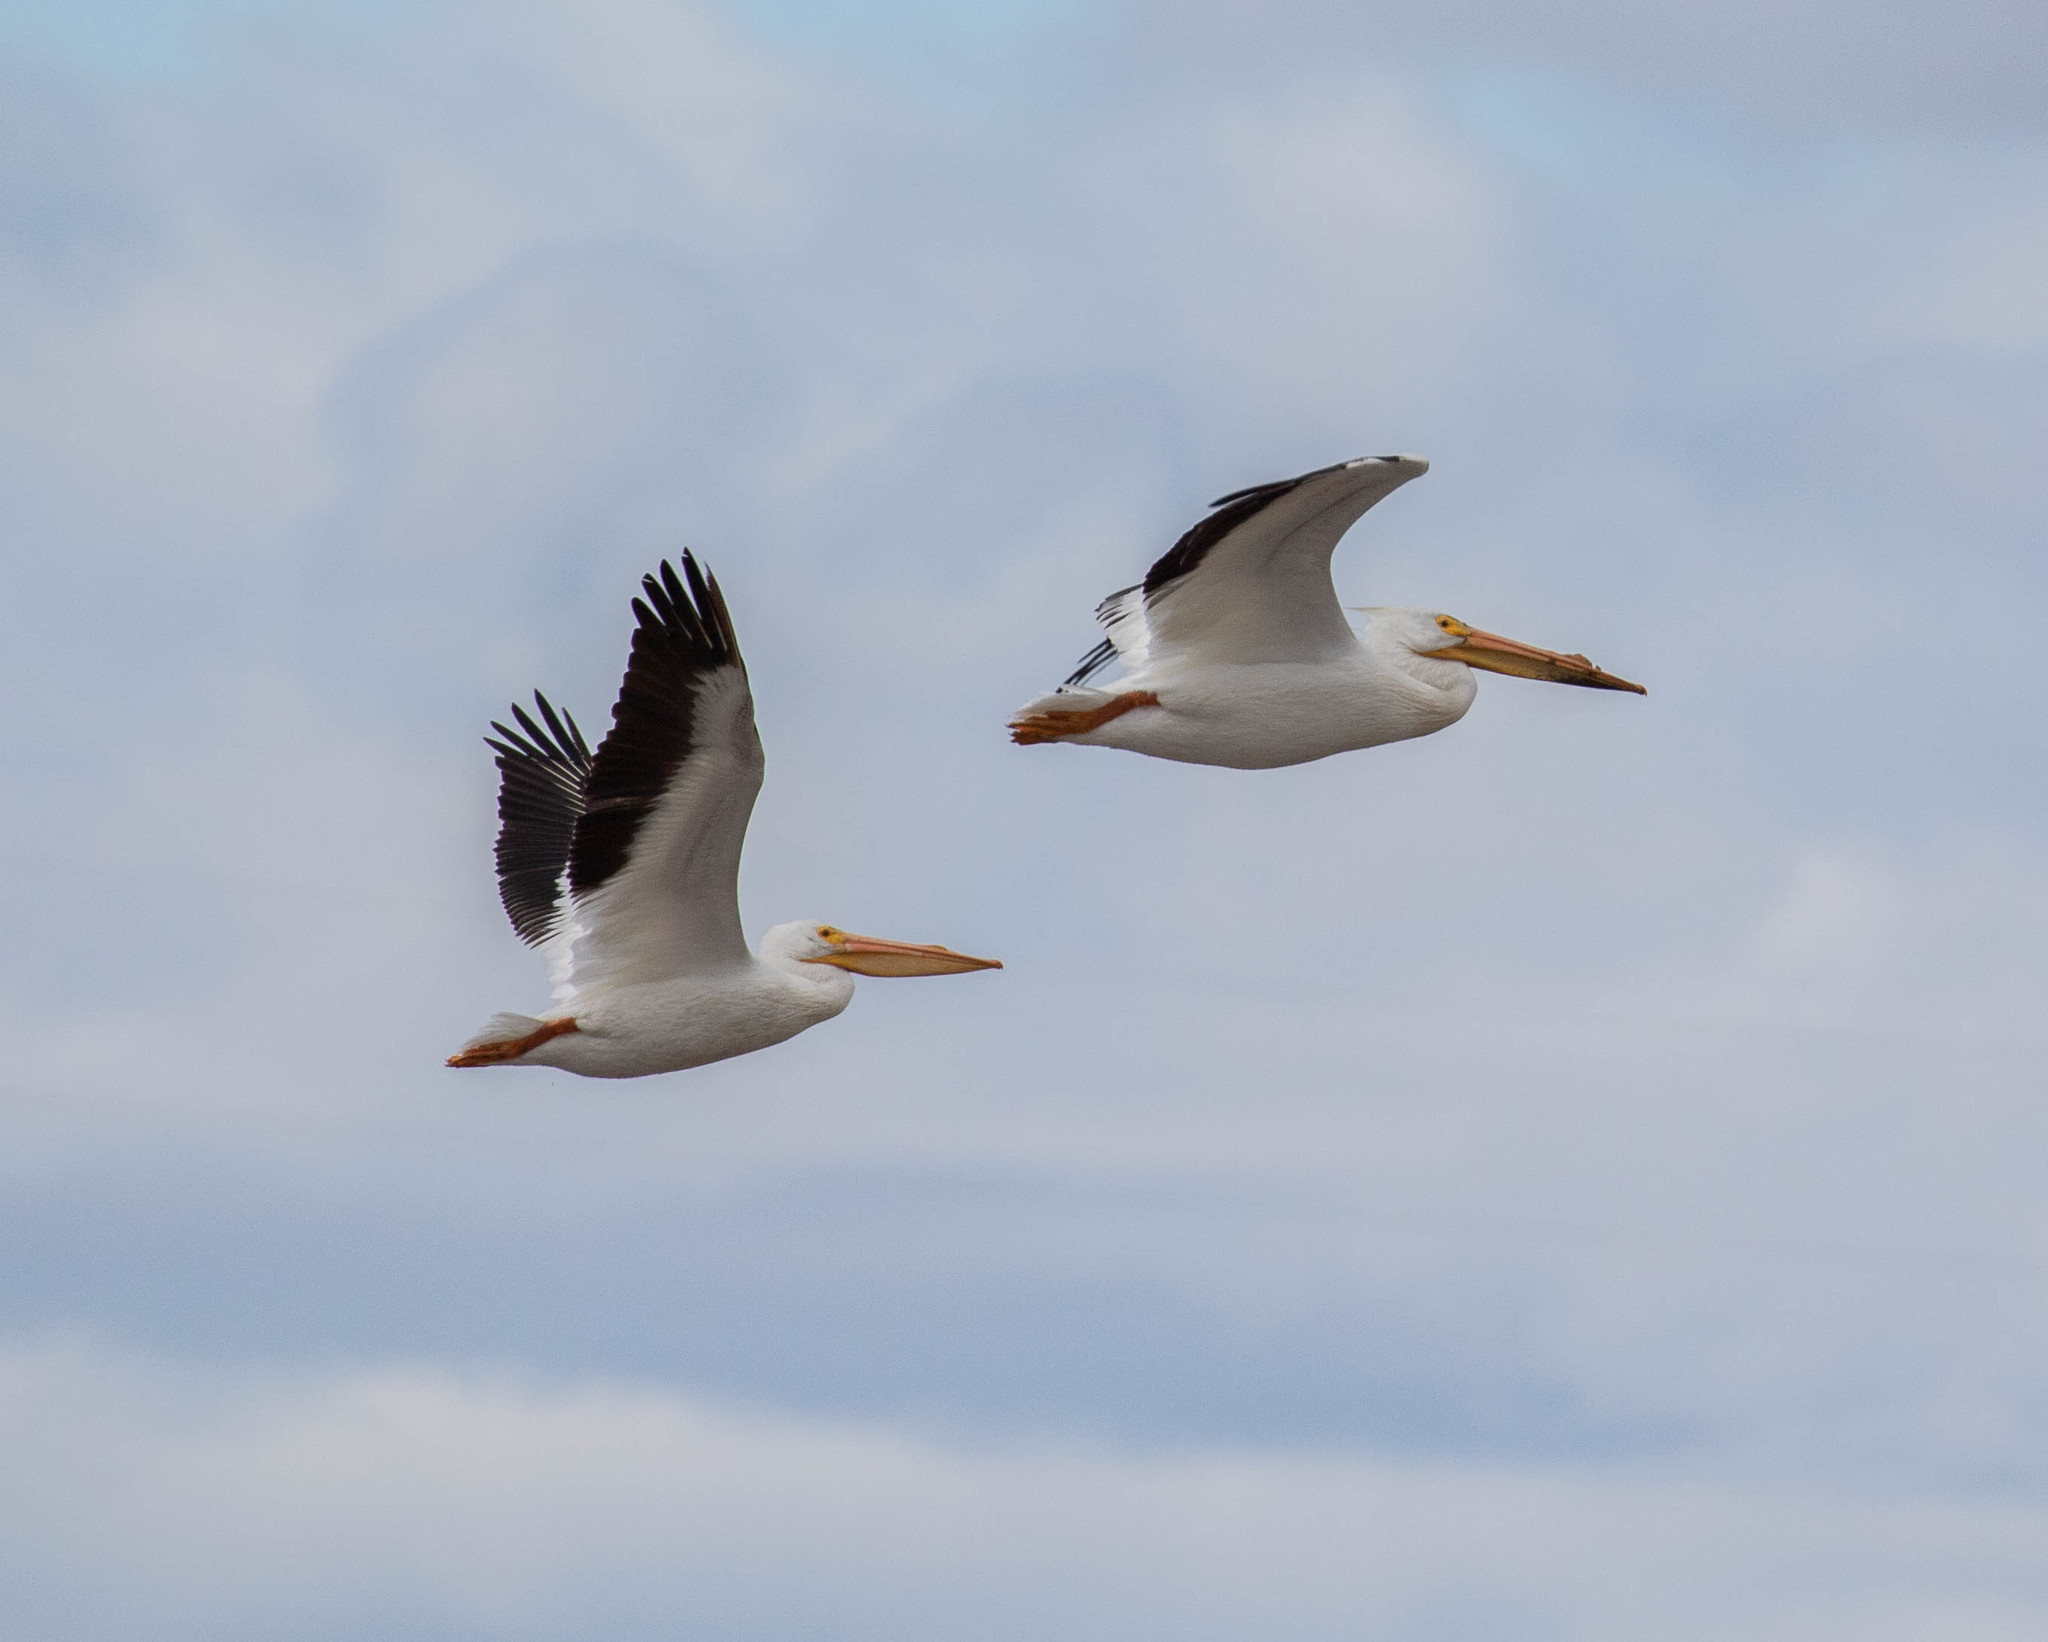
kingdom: Animalia
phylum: Chordata
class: Aves
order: Pelecaniformes
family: Pelecanidae
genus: Pelecanus
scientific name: Pelecanus erythrorhynchos
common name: American white pelican
